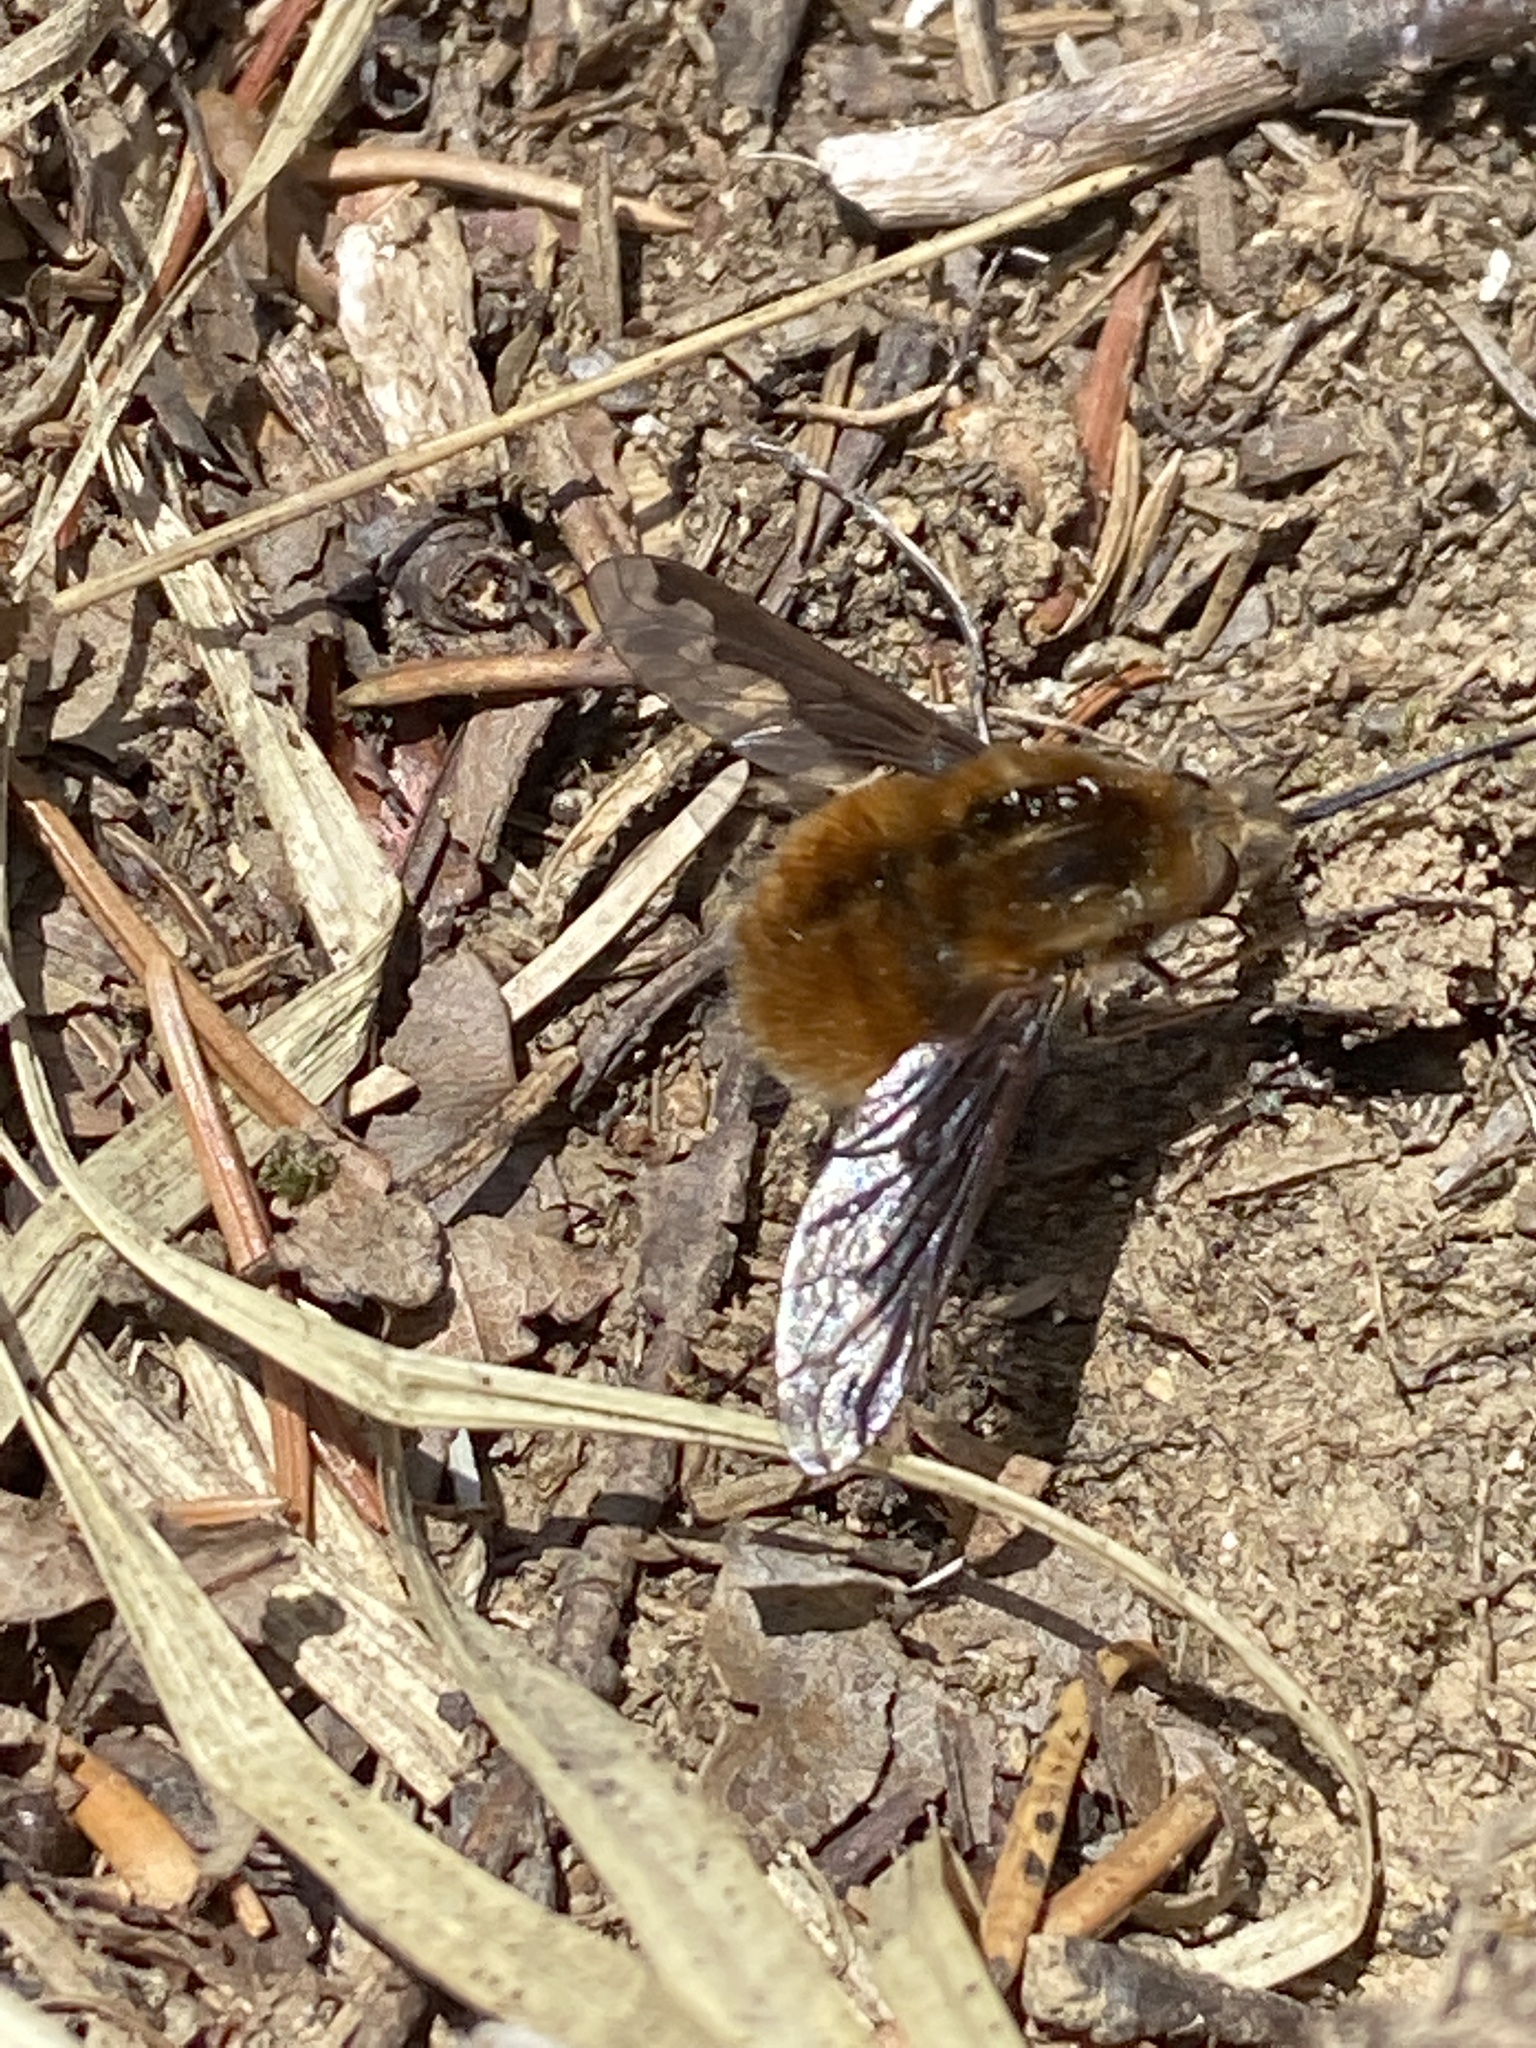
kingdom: Animalia
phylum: Arthropoda
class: Insecta
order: Diptera
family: Bombyliidae
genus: Bombylius
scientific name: Bombylius major
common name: Bee fly
